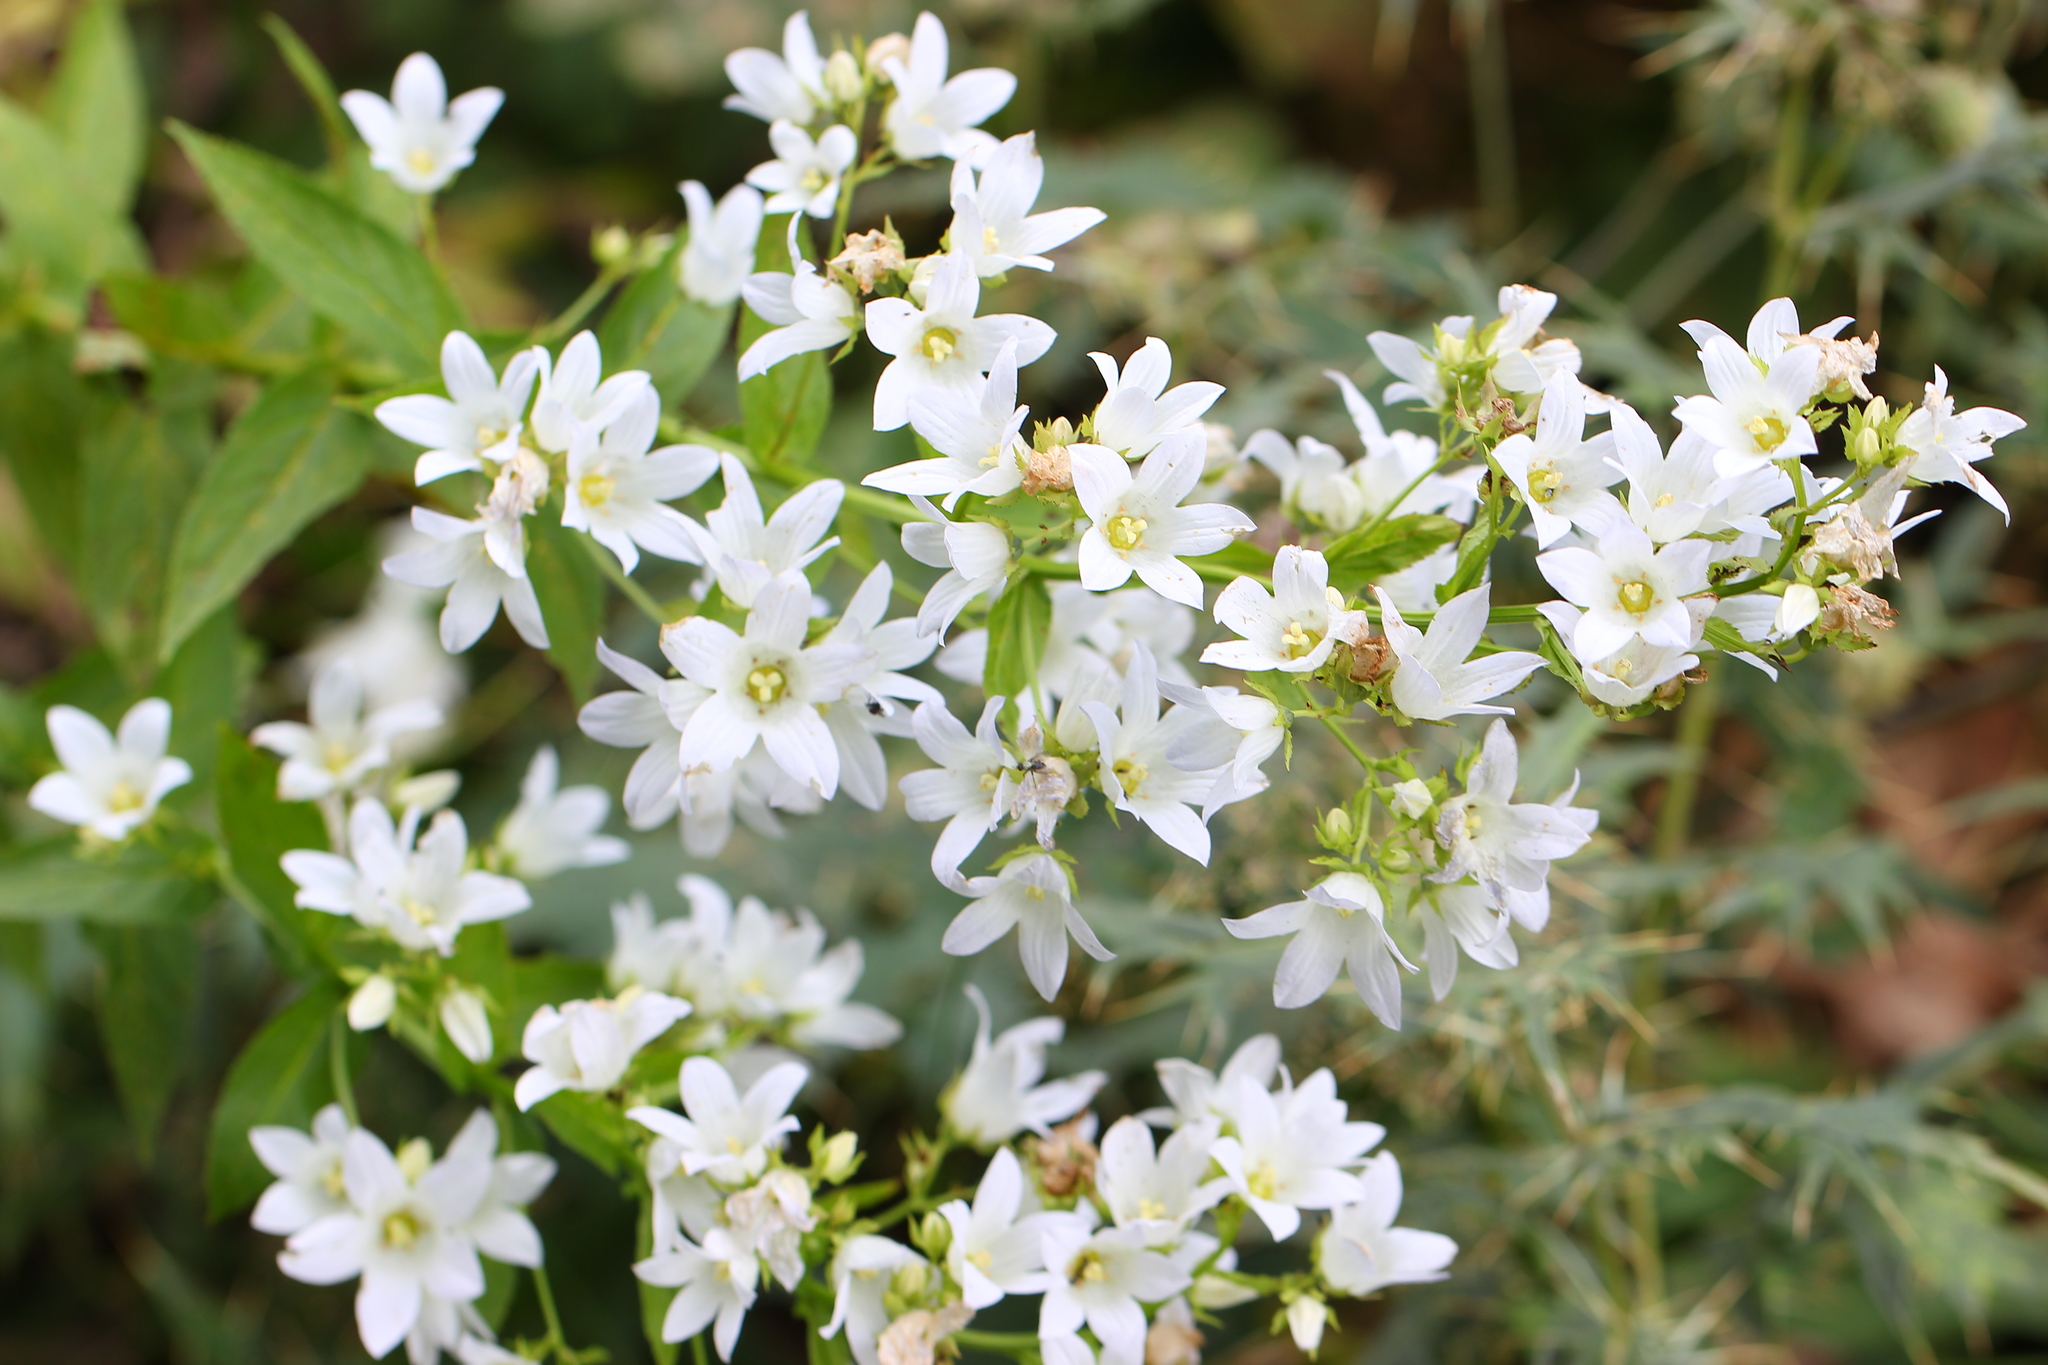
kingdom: Plantae
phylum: Tracheophyta
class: Magnoliopsida
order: Asterales
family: Campanulaceae
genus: Campanula
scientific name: Campanula lactiflora
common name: Milky bellflower
